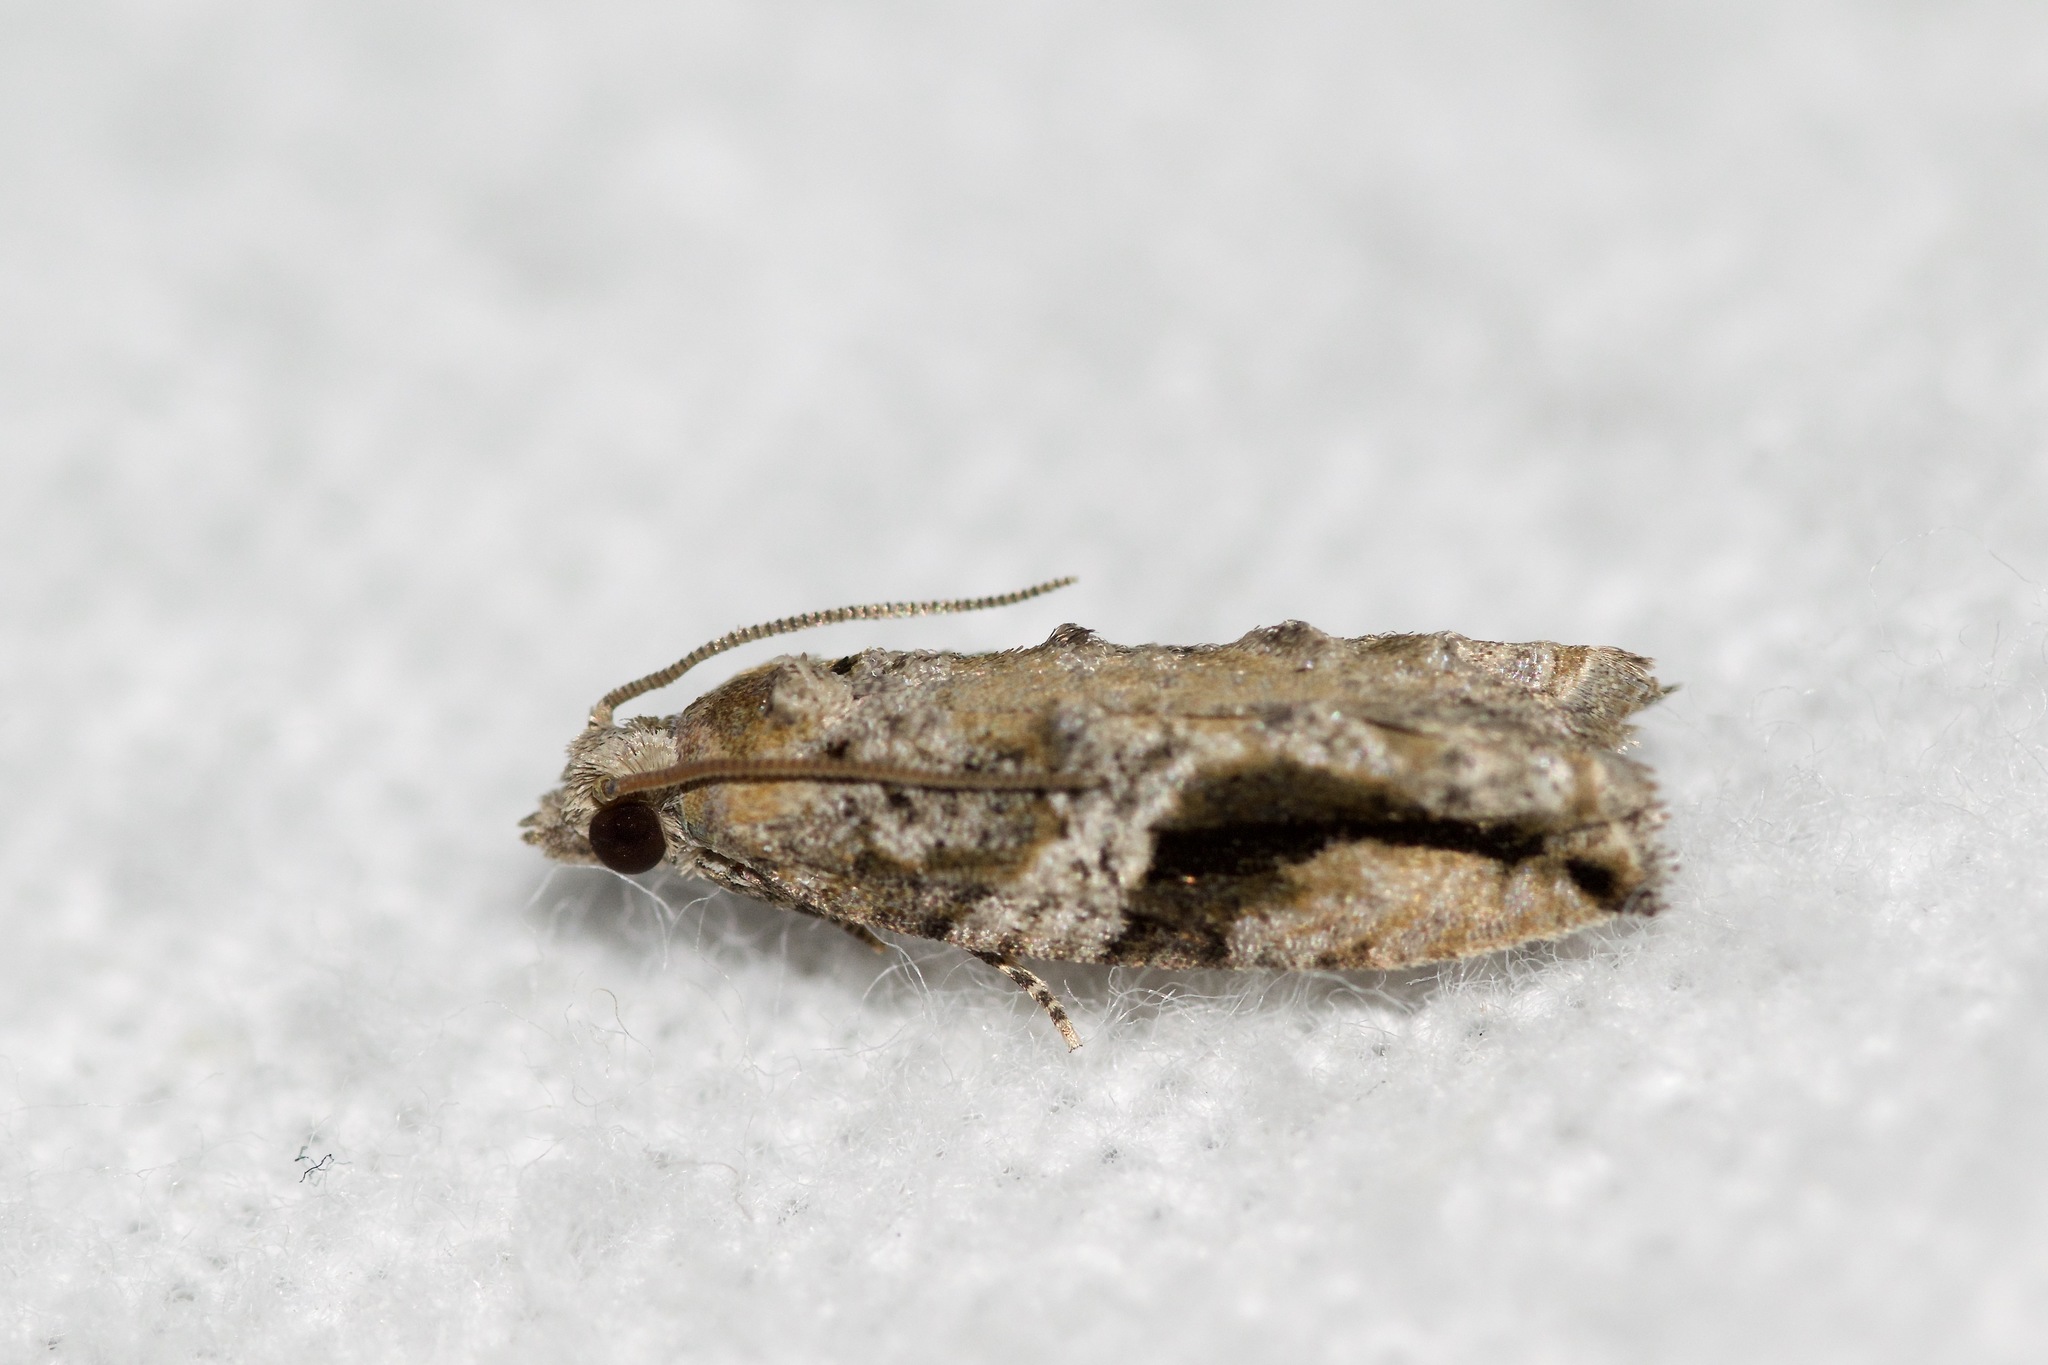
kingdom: Animalia
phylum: Arthropoda
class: Insecta
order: Lepidoptera
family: Tortricidae
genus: Proteoteras
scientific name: Proteoteras crescentana
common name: Black-crescent proteoteras moth
